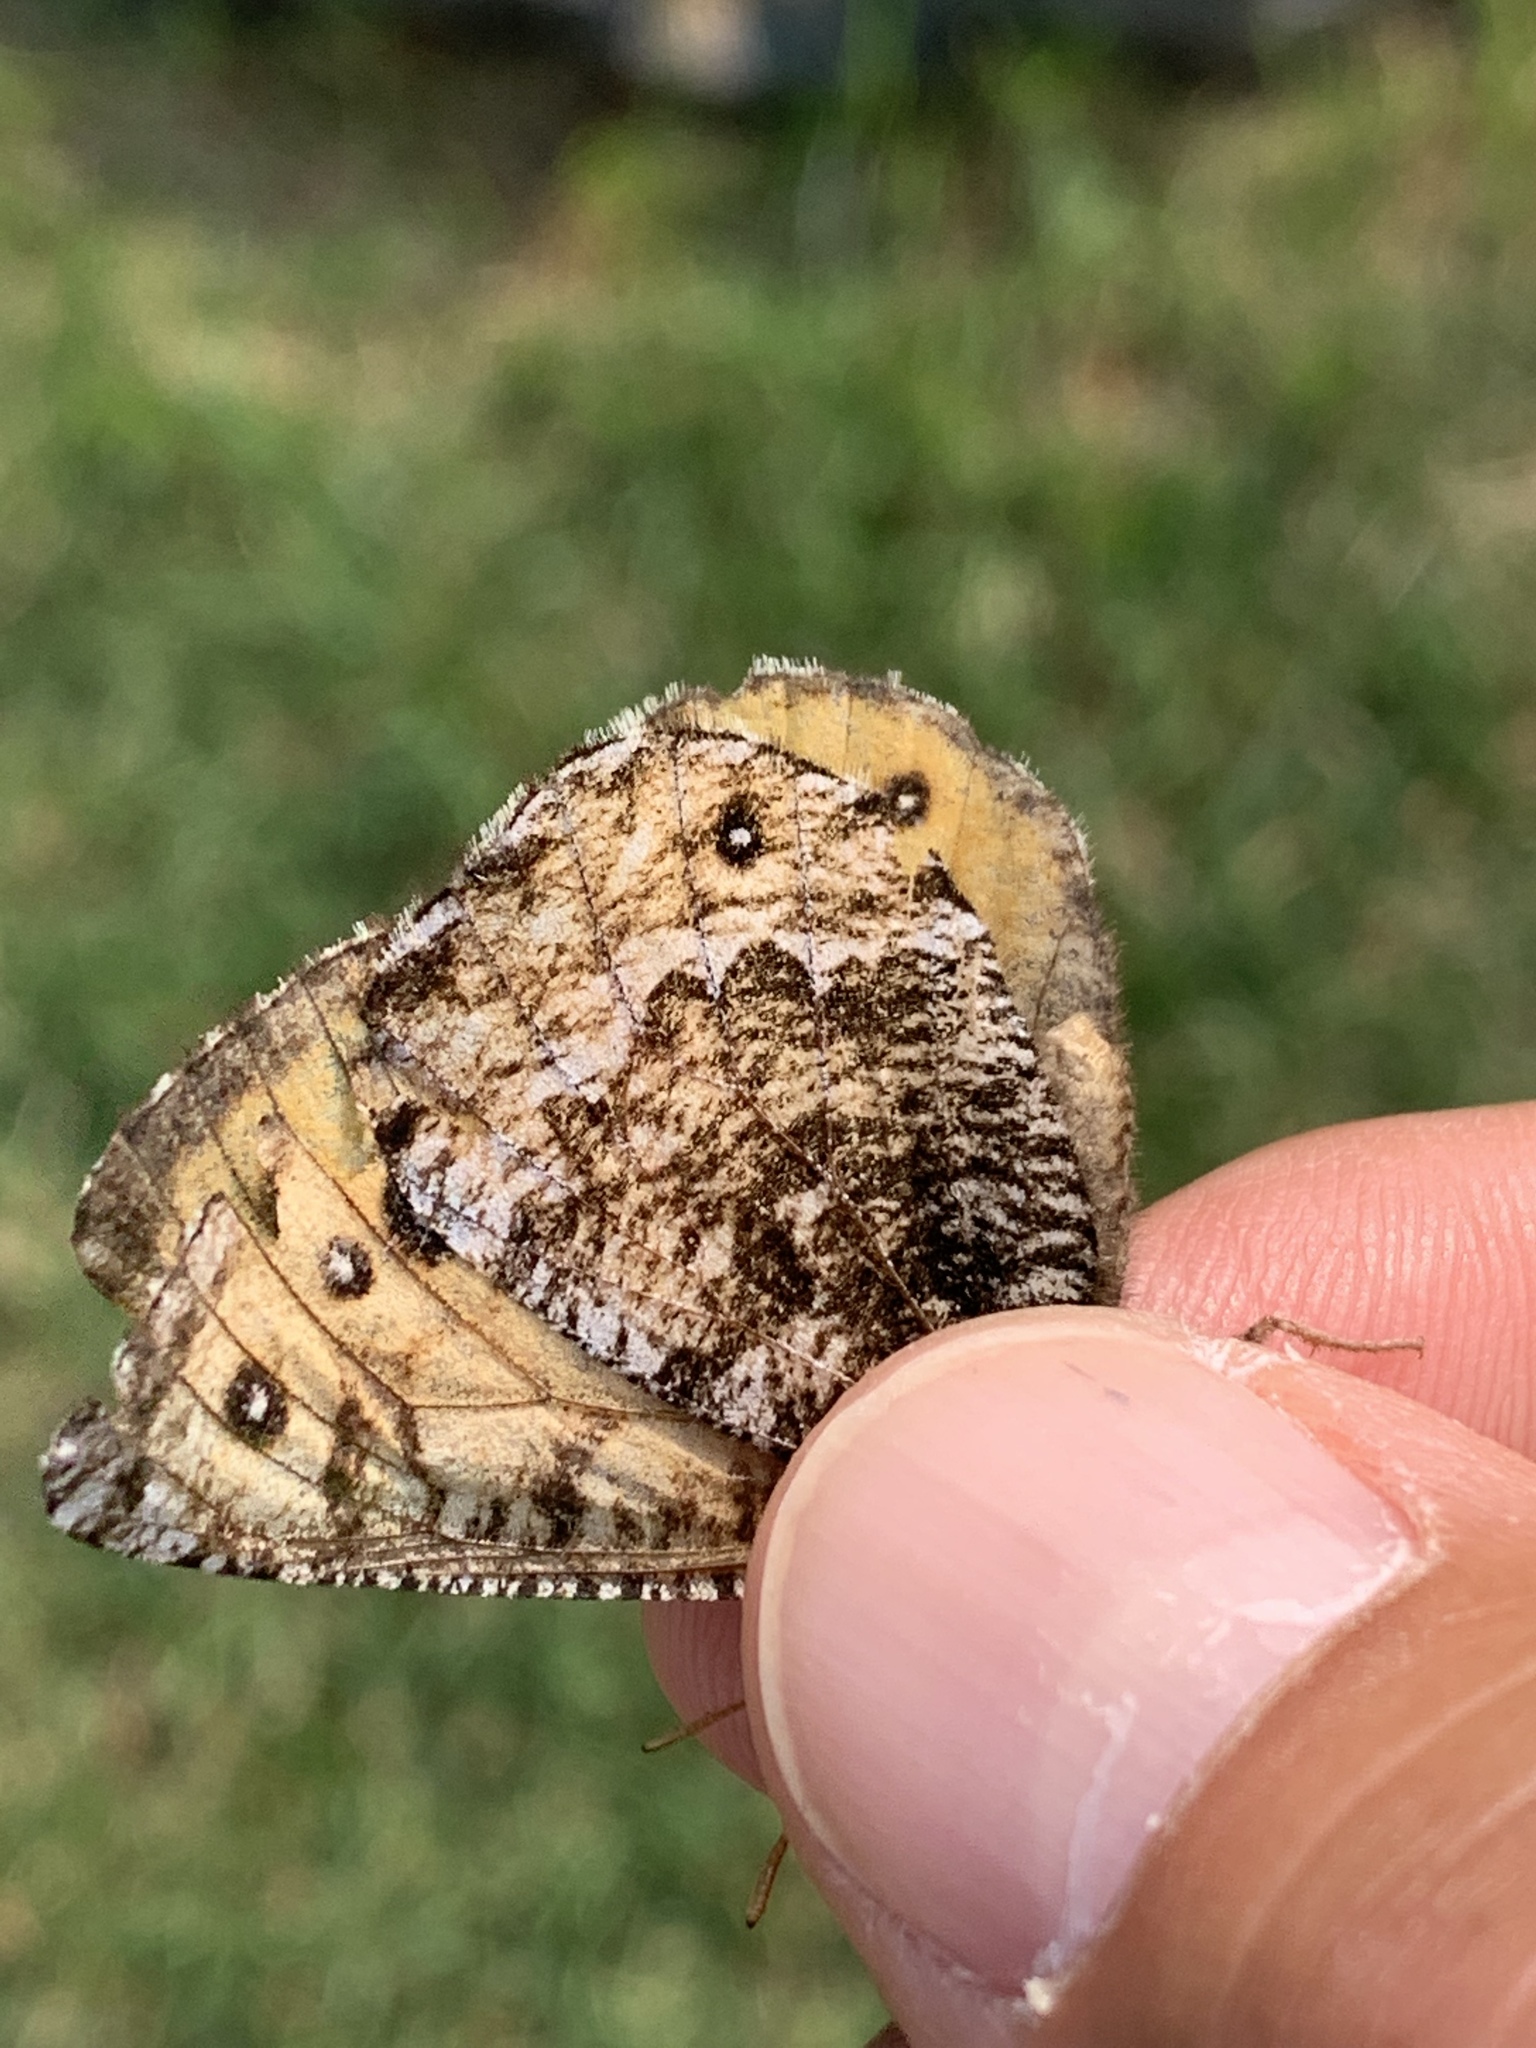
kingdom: Animalia
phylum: Arthropoda
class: Insecta
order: Lepidoptera
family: Nymphalidae
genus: Oeneis
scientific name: Oeneis chryxus
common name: Chryxus arctic
